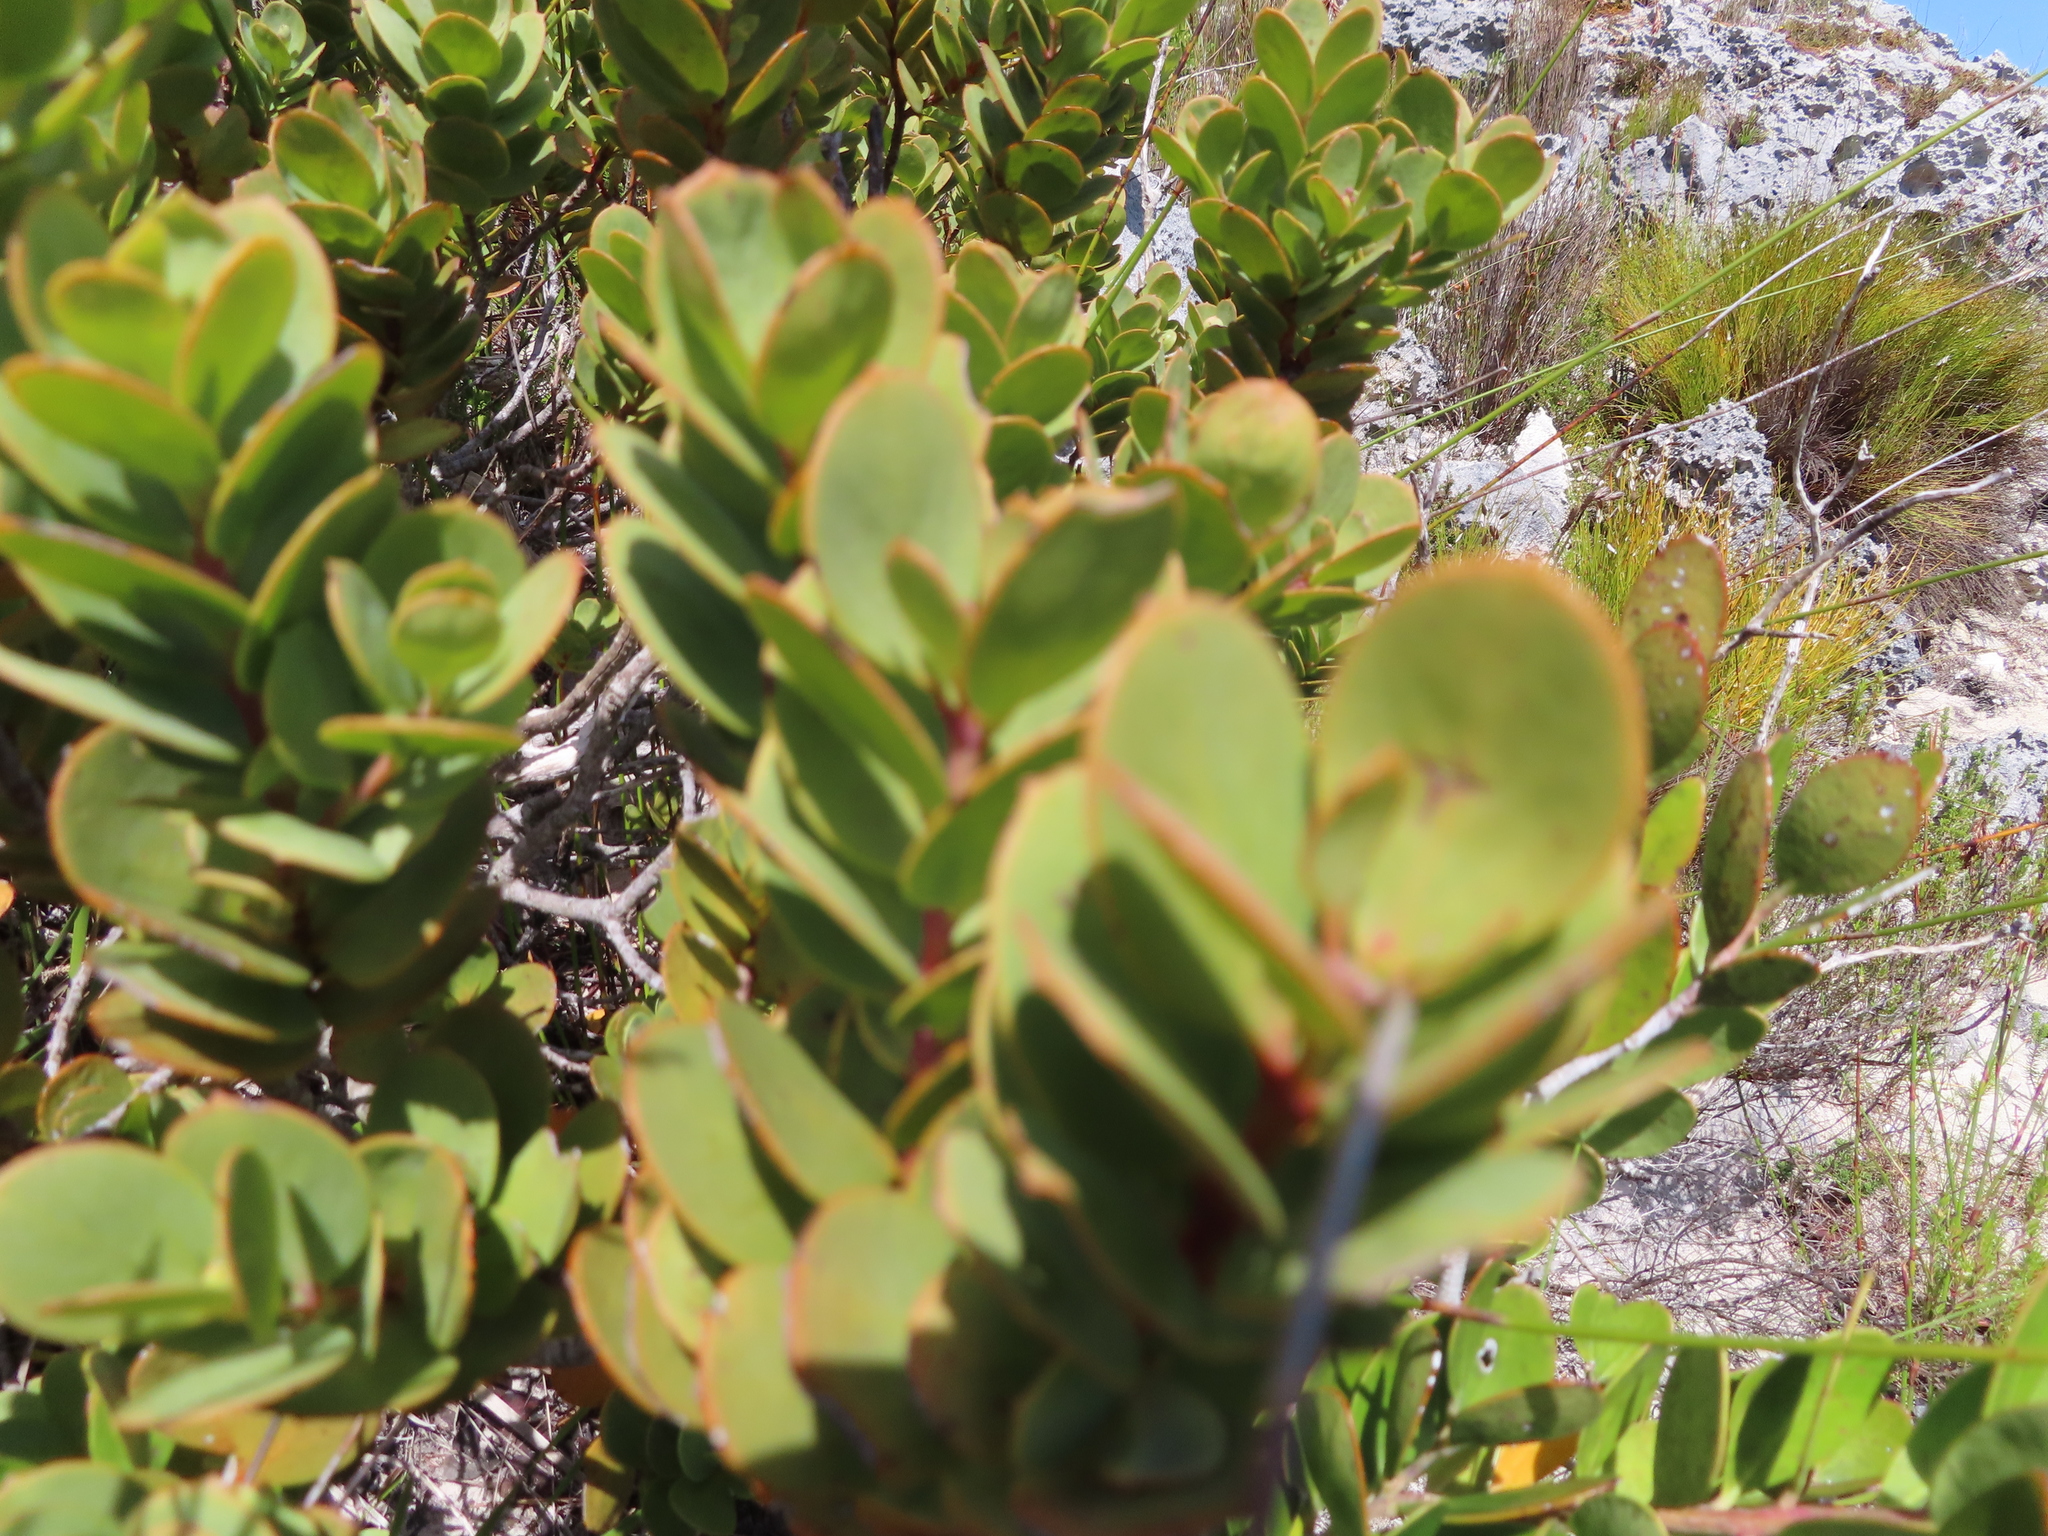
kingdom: Plantae
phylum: Tracheophyta
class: Magnoliopsida
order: Santalales
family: Santalaceae
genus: Osyris
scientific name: Osyris compressa
